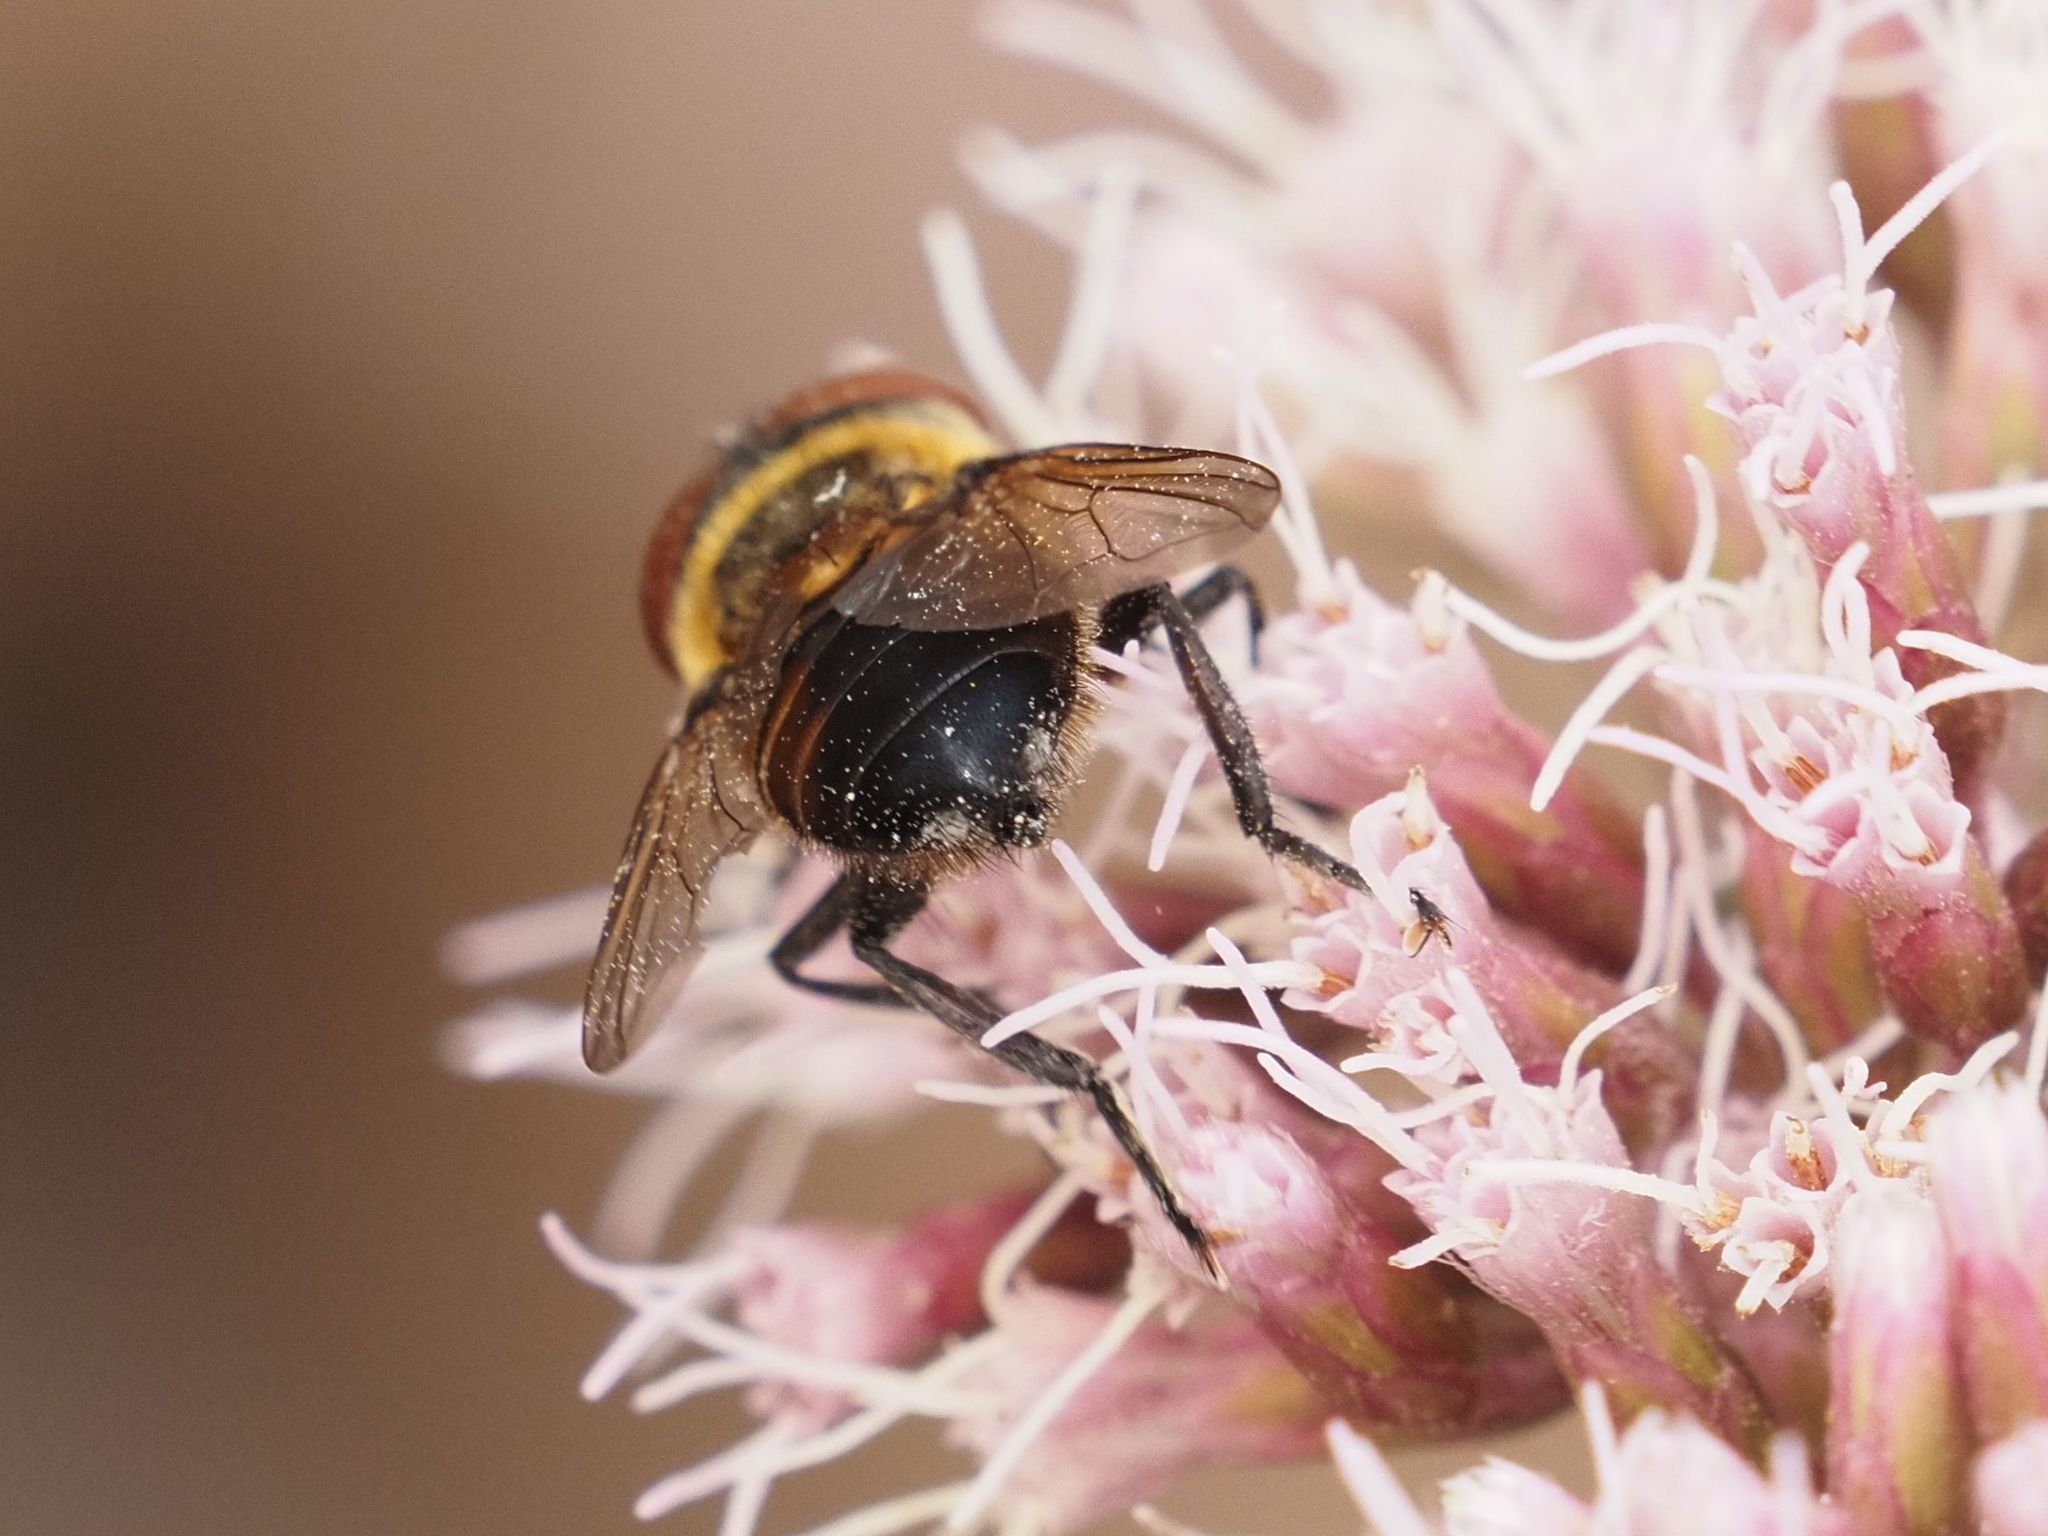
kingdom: Animalia
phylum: Arthropoda
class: Insecta
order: Diptera
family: Tachinidae
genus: Phasia
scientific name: Phasia hemiptera
